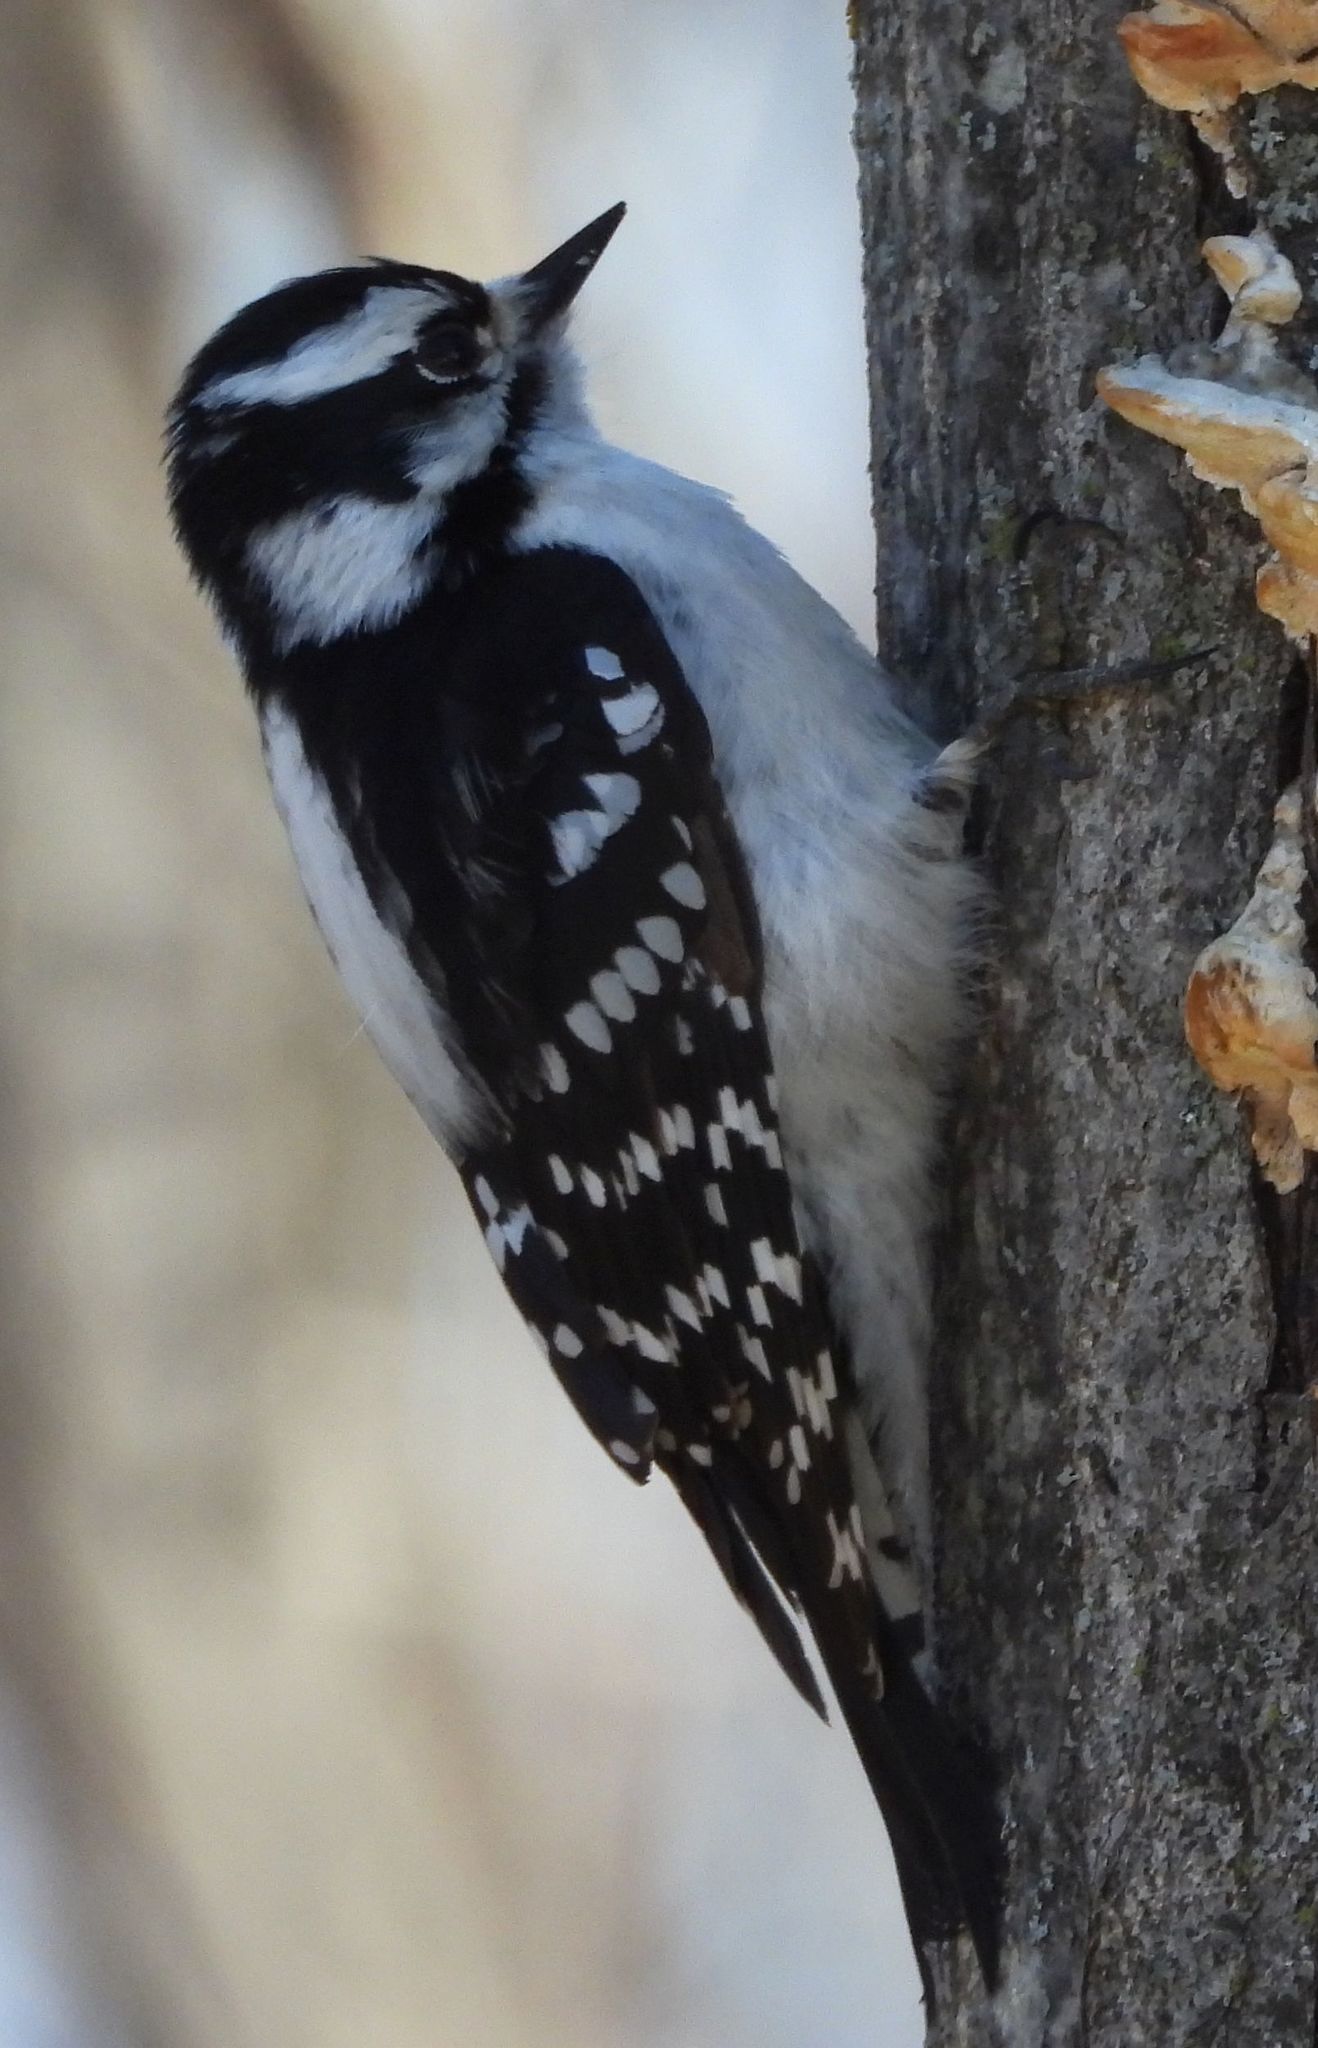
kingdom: Animalia
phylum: Chordata
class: Aves
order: Piciformes
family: Picidae
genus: Dryobates
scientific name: Dryobates pubescens
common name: Downy woodpecker
